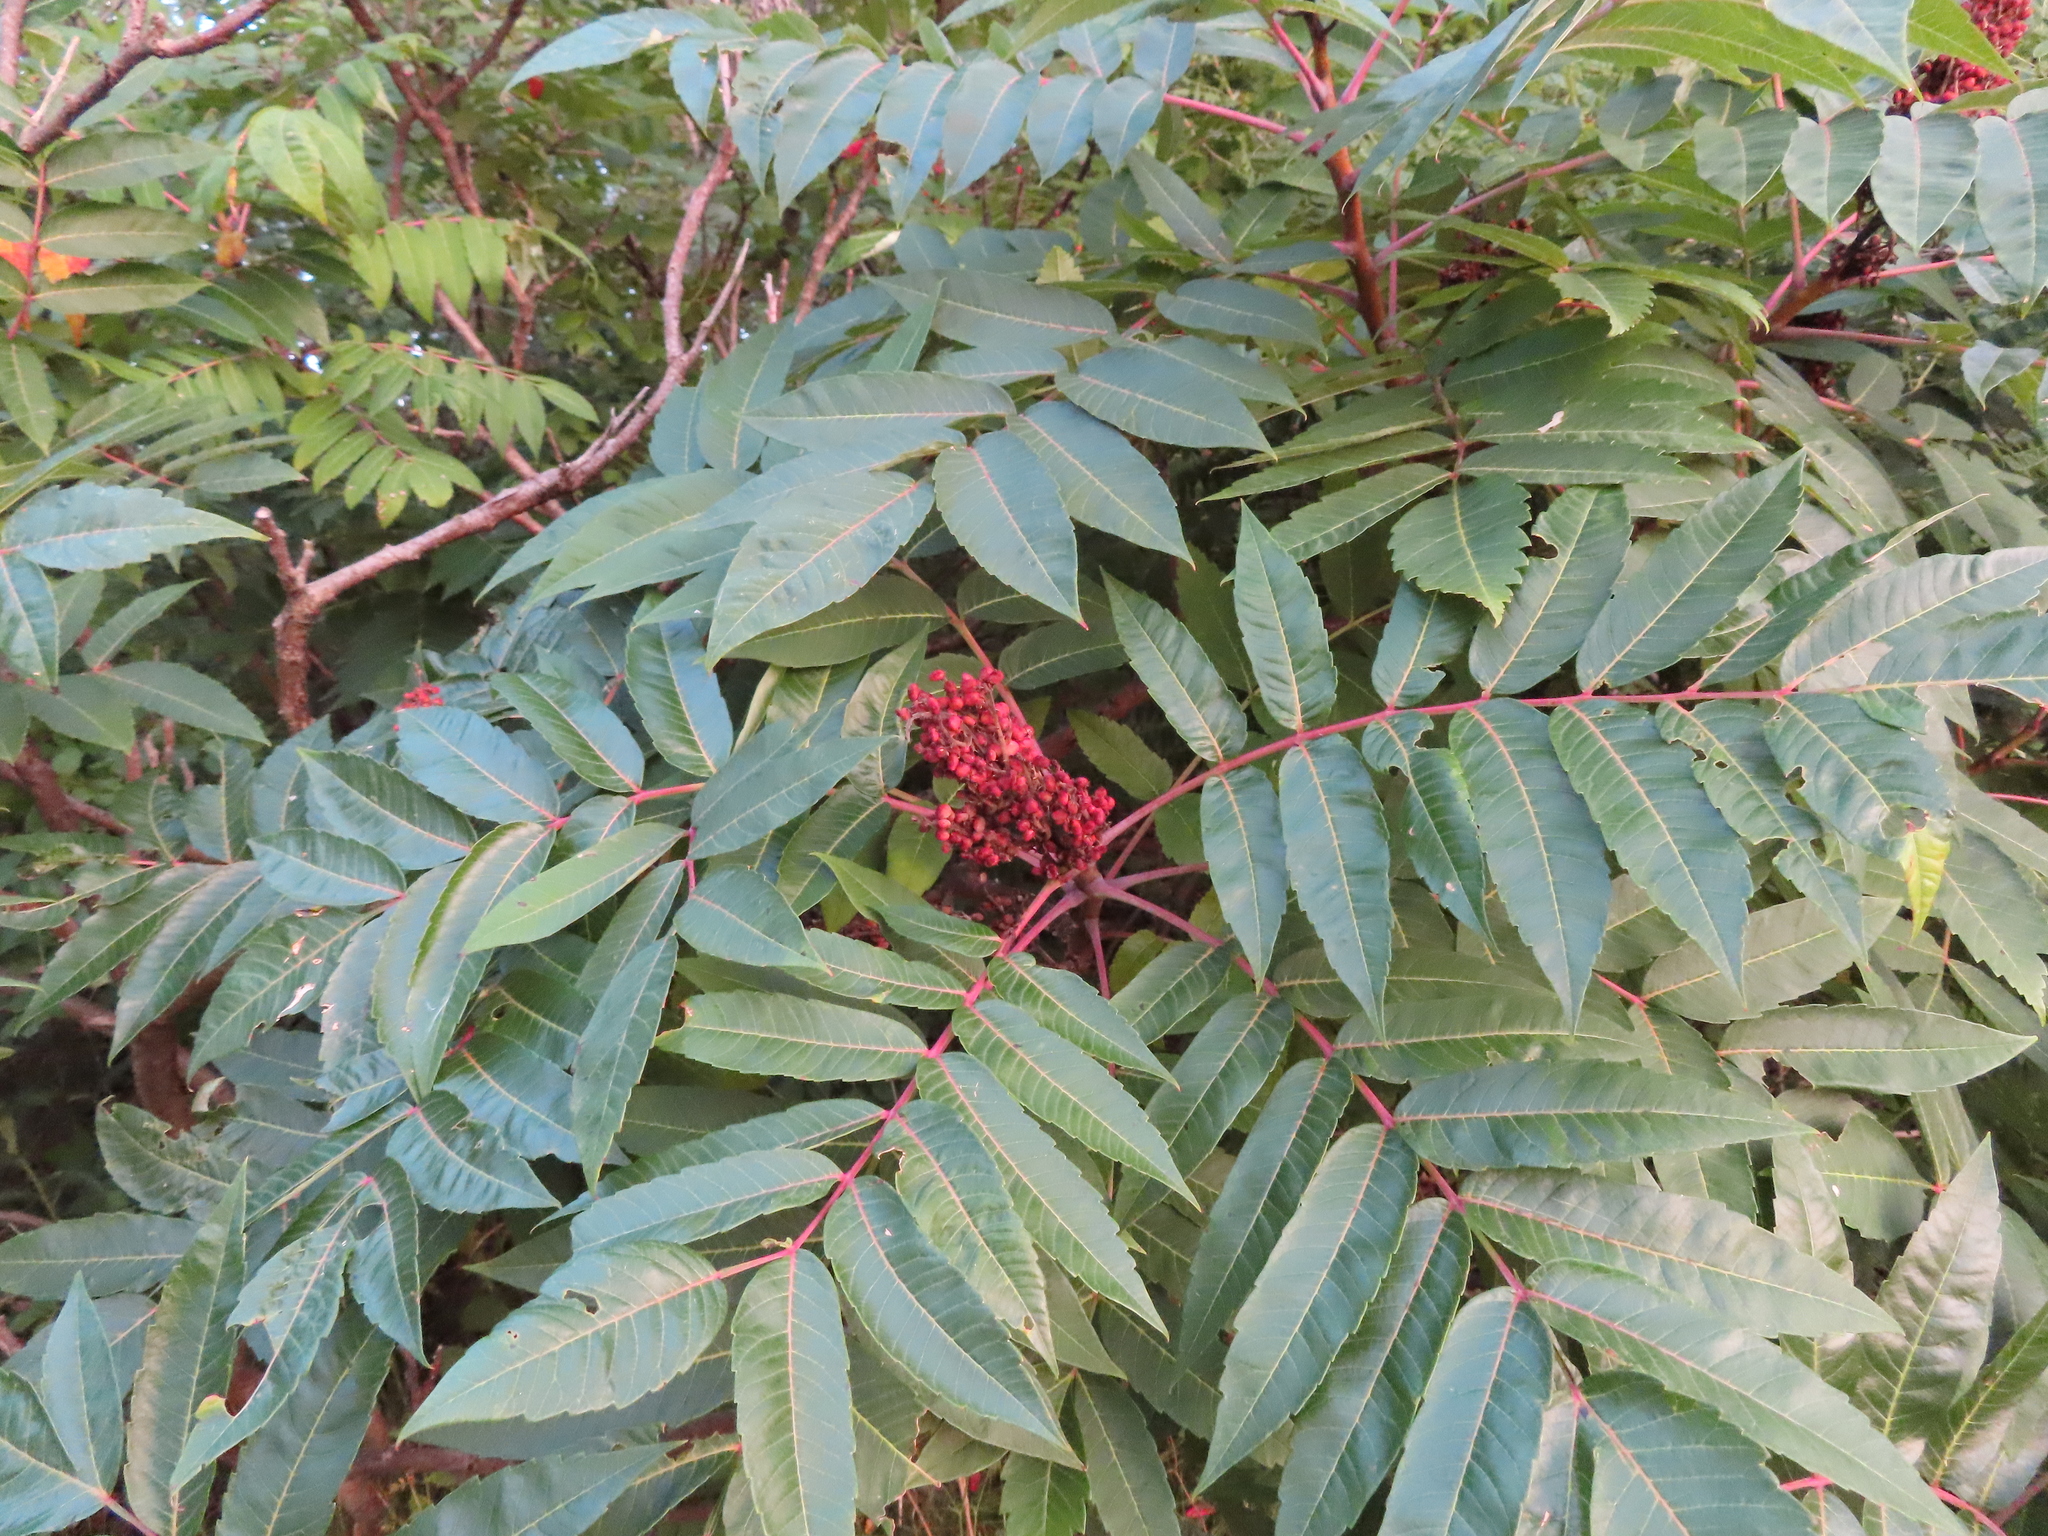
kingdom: Plantae
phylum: Tracheophyta
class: Magnoliopsida
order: Sapindales
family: Anacardiaceae
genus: Rhus
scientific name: Rhus glabra
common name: Scarlet sumac
